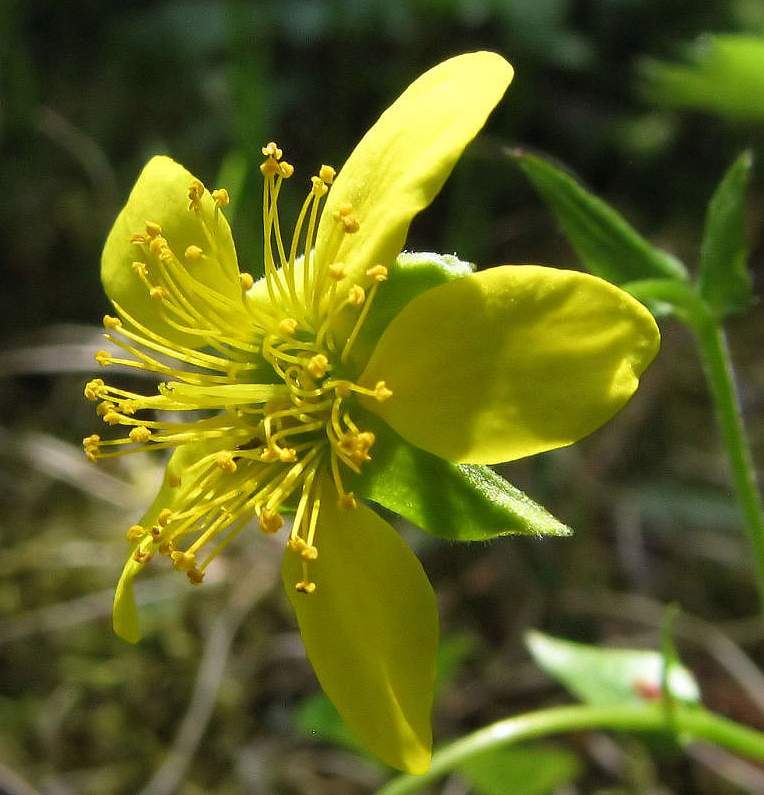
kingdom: Plantae
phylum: Tracheophyta
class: Magnoliopsida
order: Rosales
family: Rosaceae
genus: Geum
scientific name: Geum fragarioides
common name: Appalachian barren strawberry
